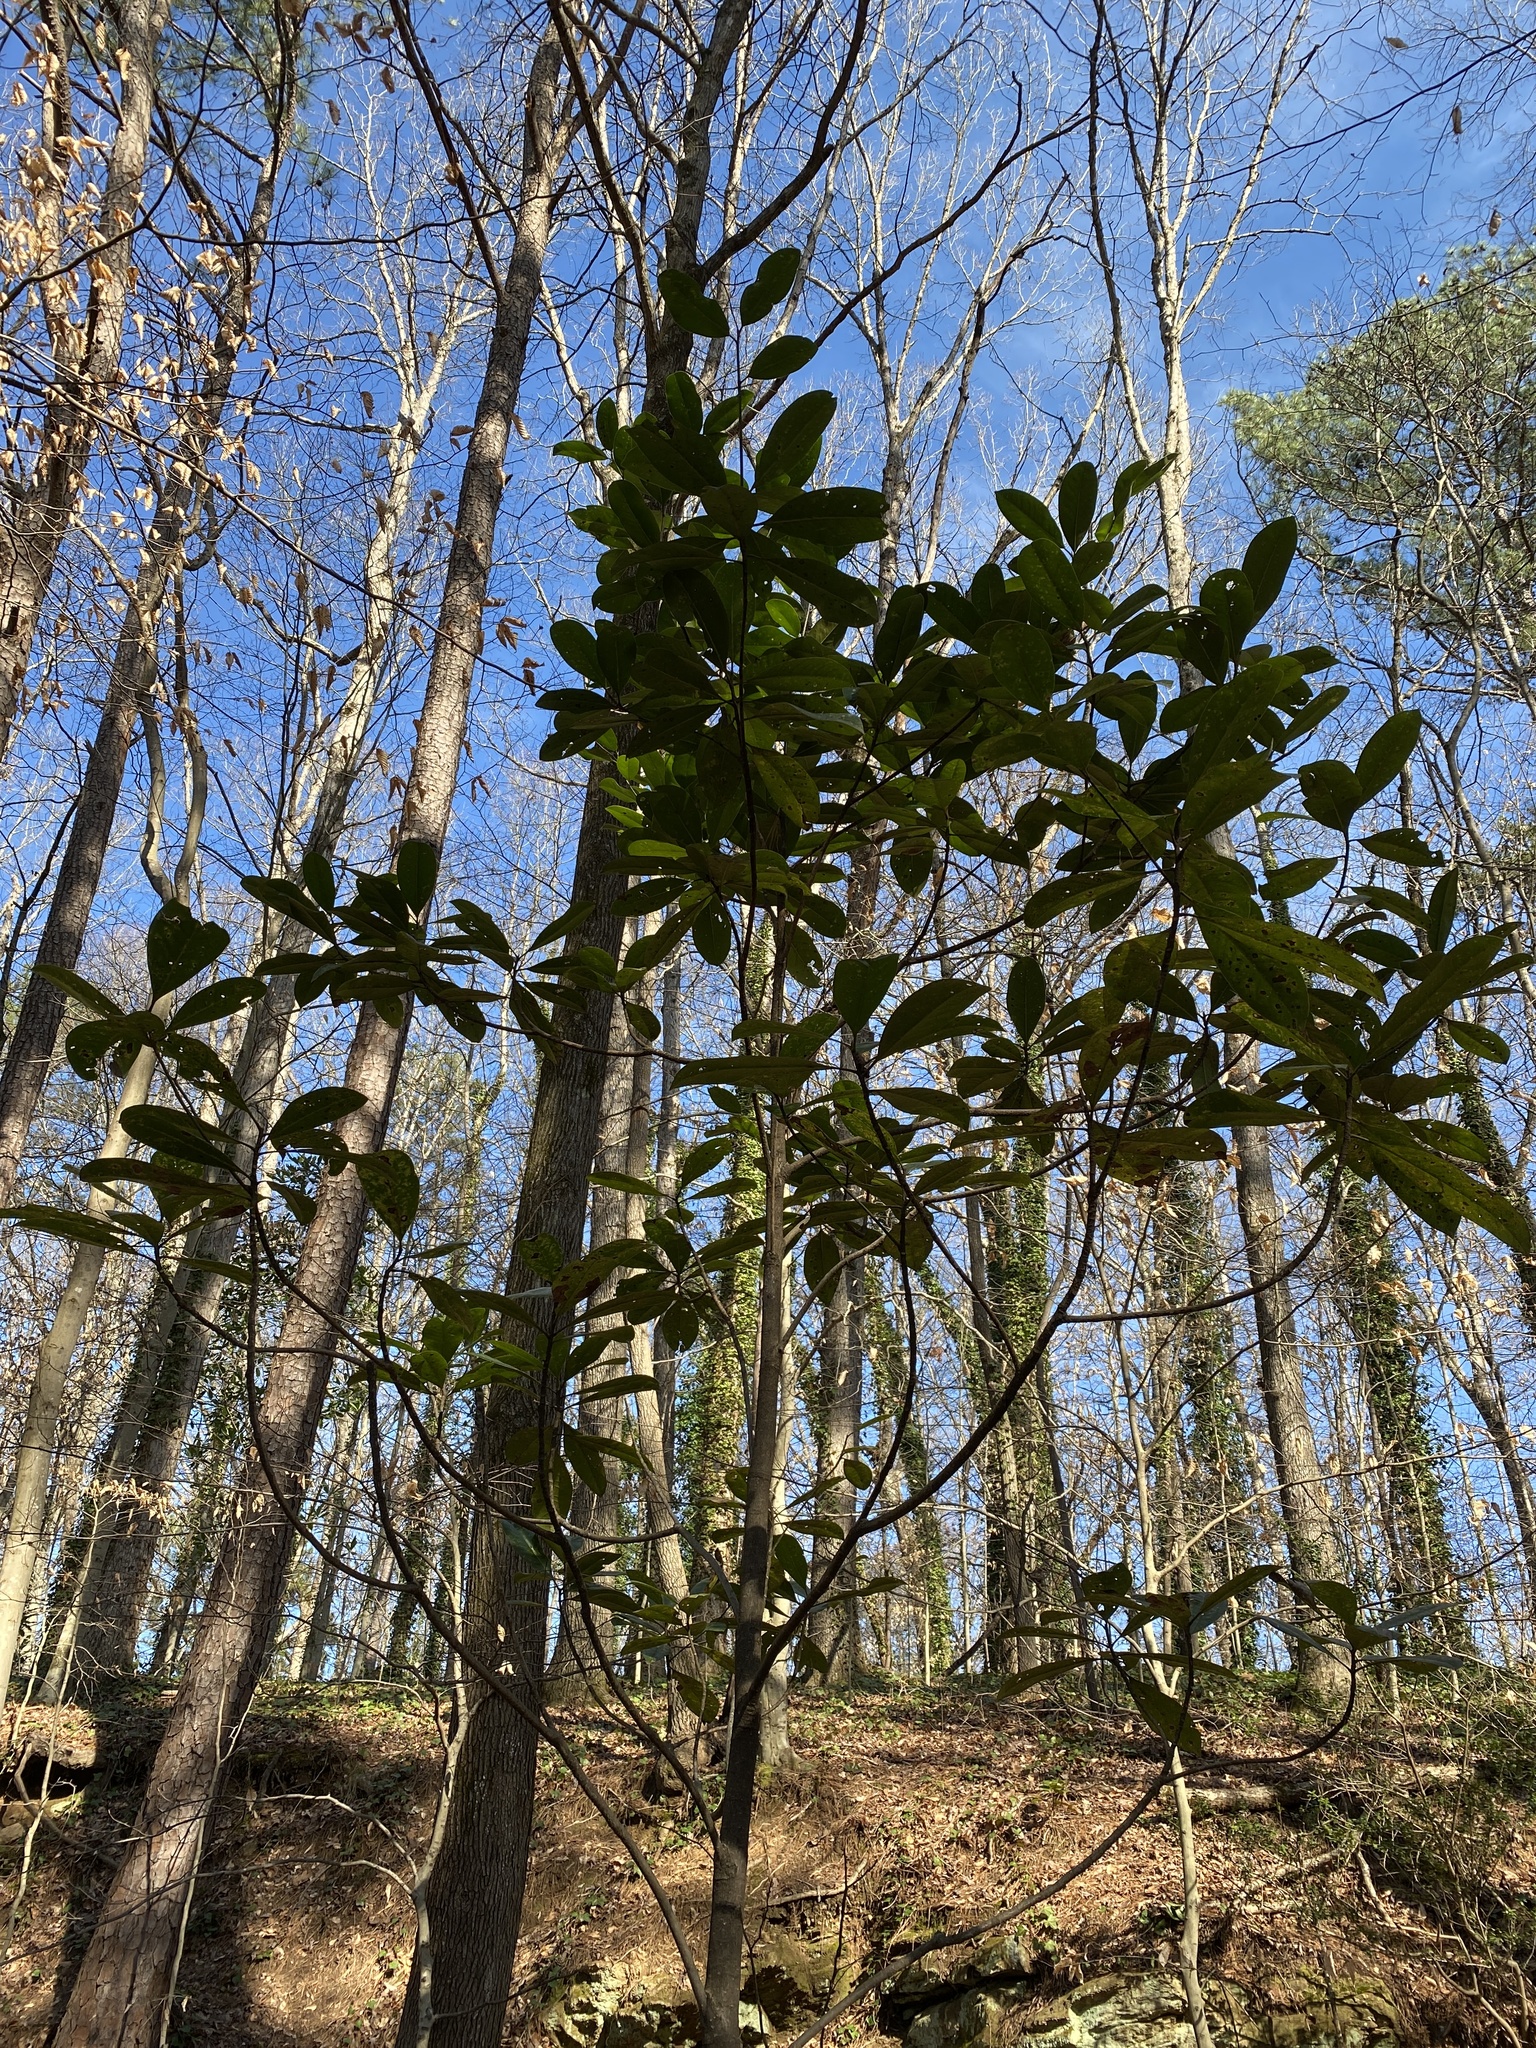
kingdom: Plantae
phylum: Tracheophyta
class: Magnoliopsida
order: Magnoliales
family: Magnoliaceae
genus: Magnolia
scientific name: Magnolia grandiflora
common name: Southern magnolia
